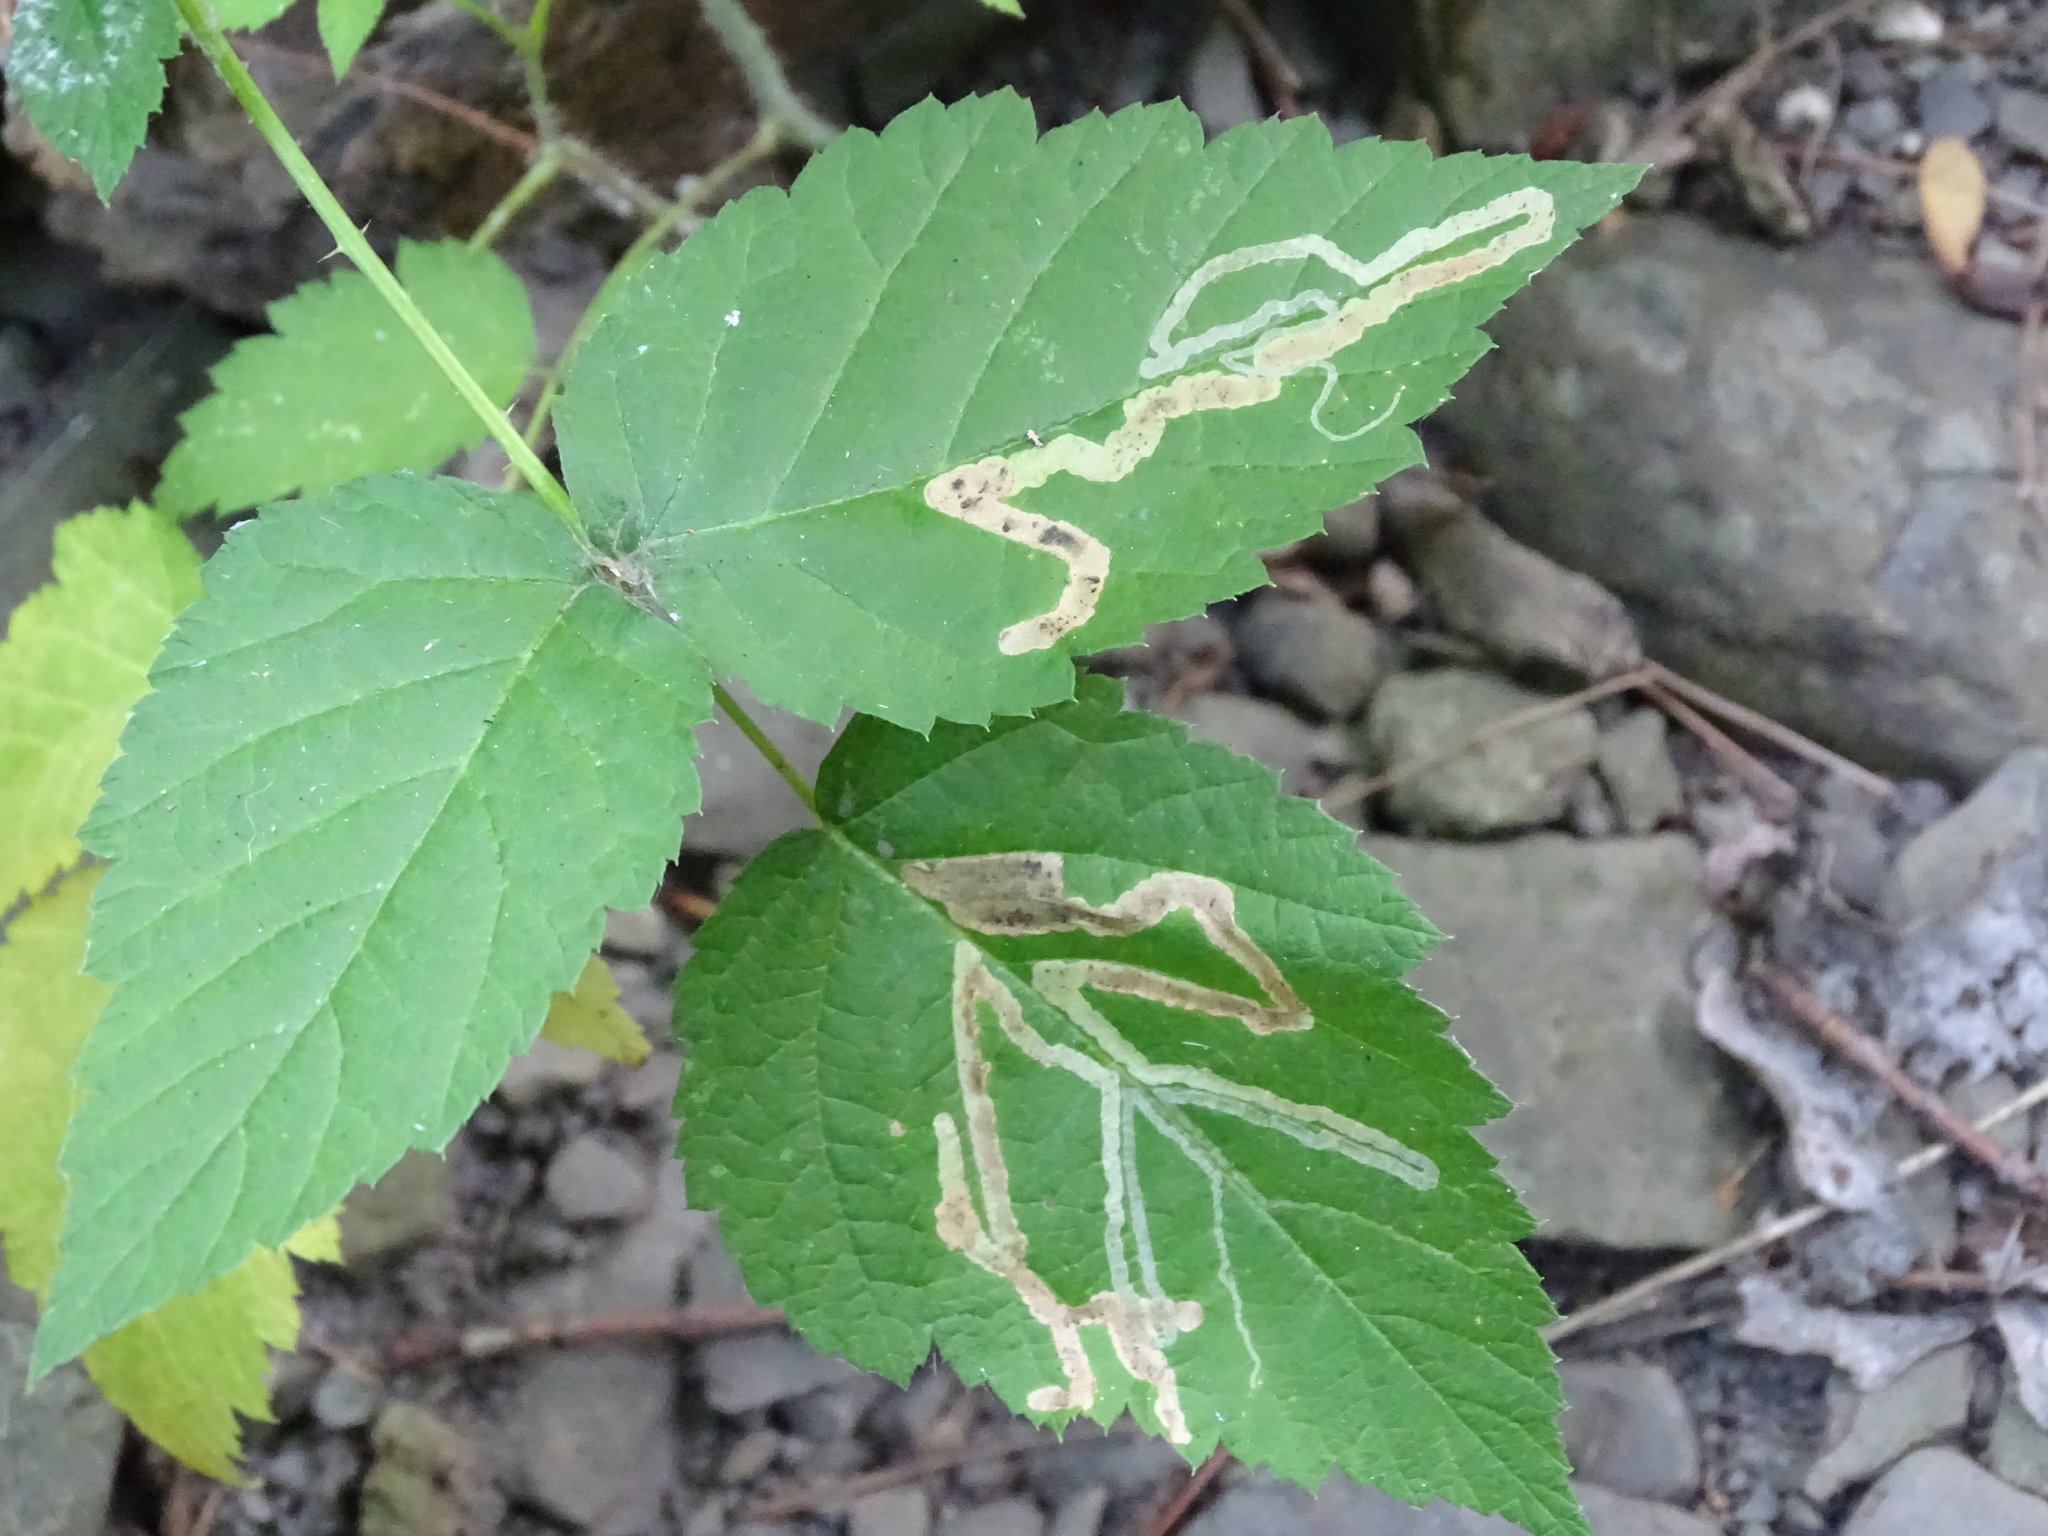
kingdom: Animalia
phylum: Arthropoda
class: Insecta
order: Diptera
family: Agromyzidae
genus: Agromyza
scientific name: Agromyza vockerothi
